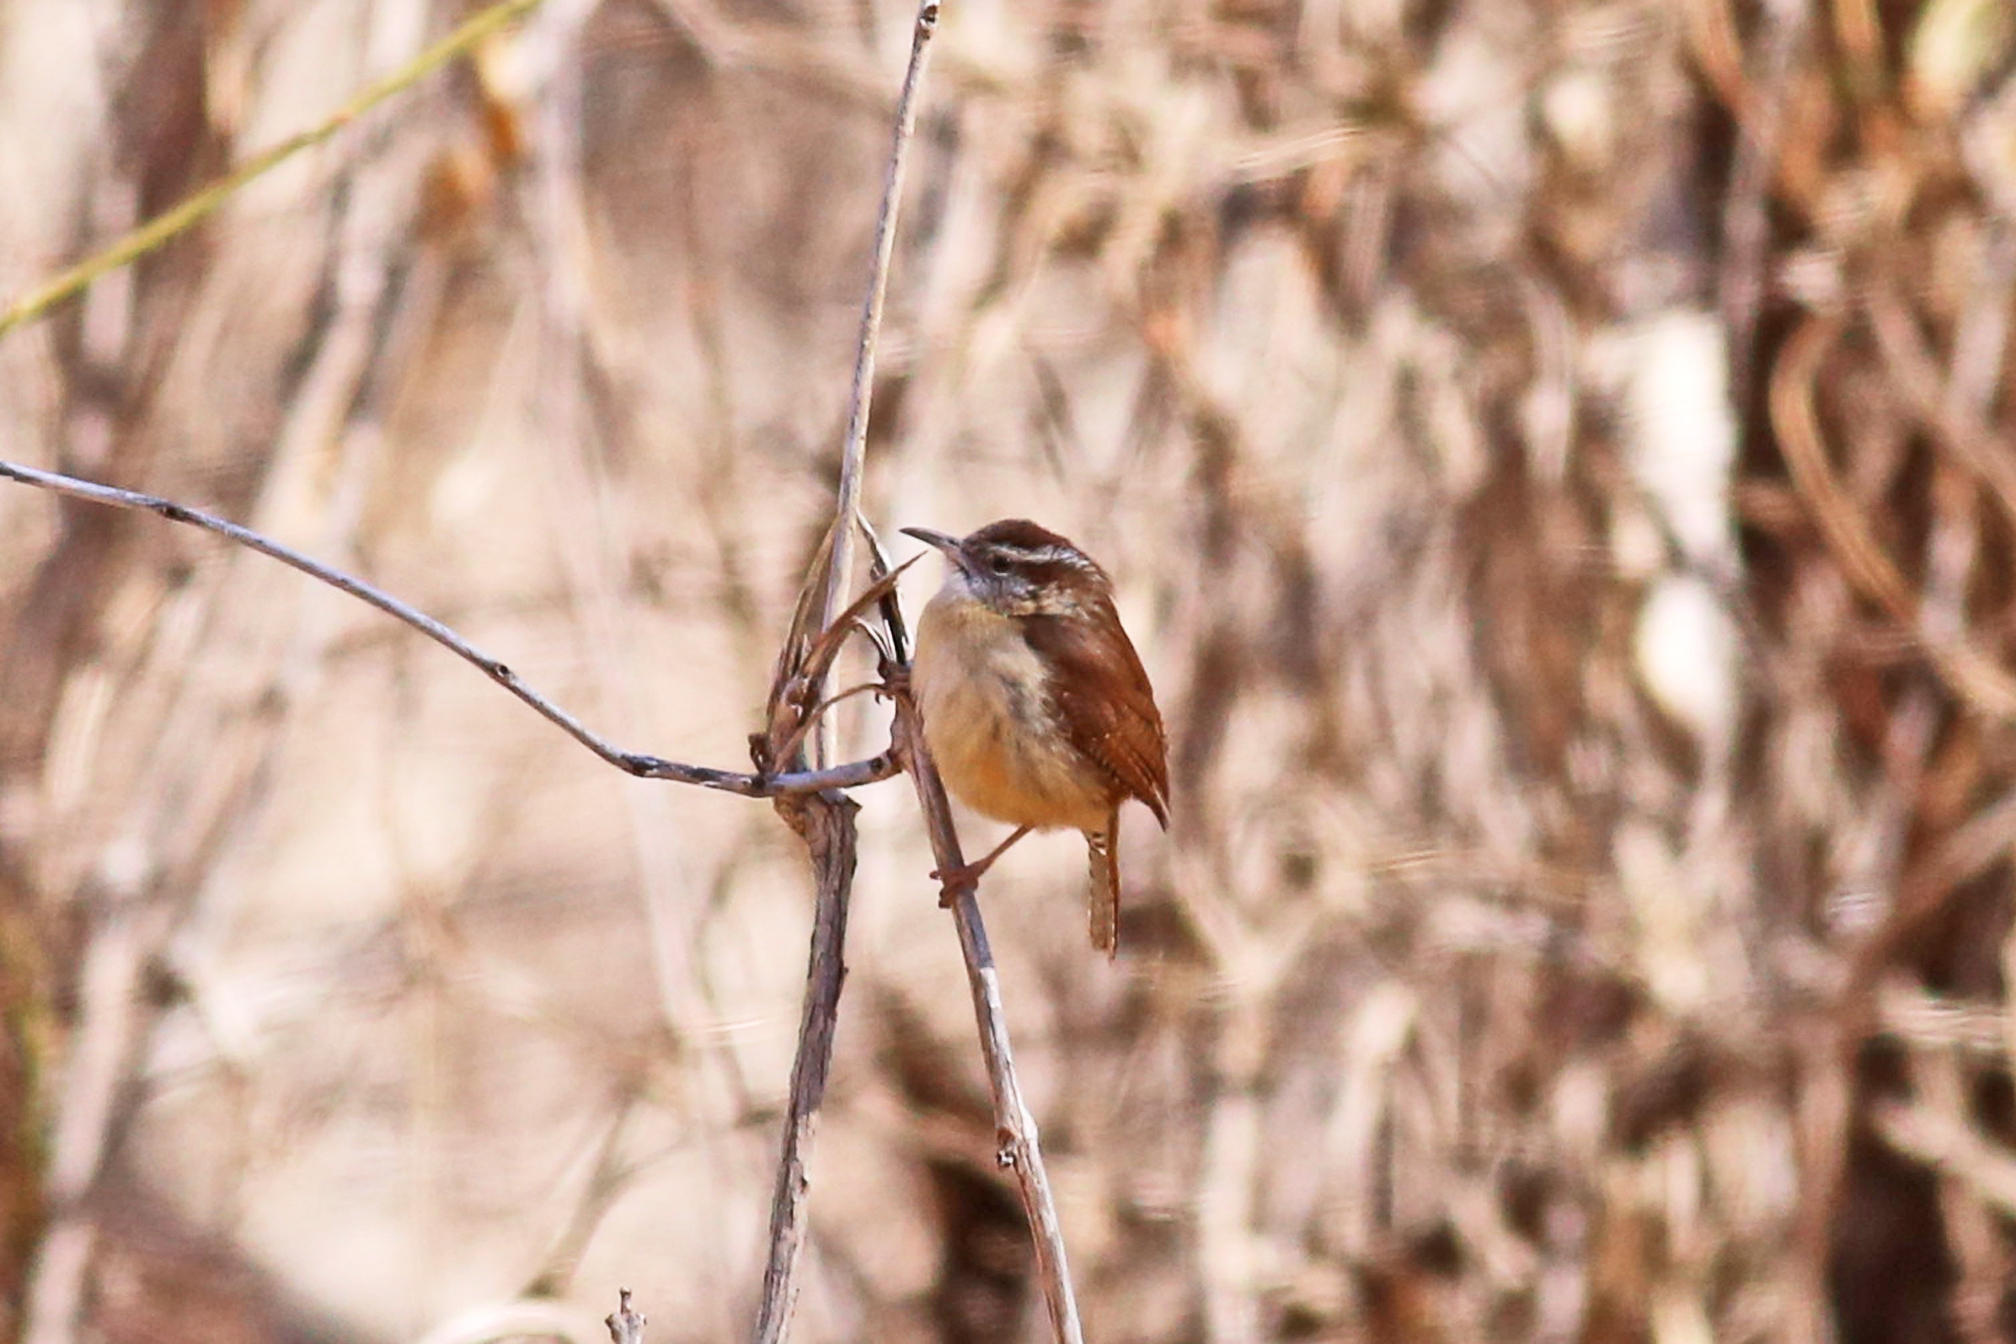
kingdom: Animalia
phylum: Chordata
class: Aves
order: Passeriformes
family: Troglodytidae
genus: Thryothorus
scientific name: Thryothorus ludovicianus
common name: Carolina wren
